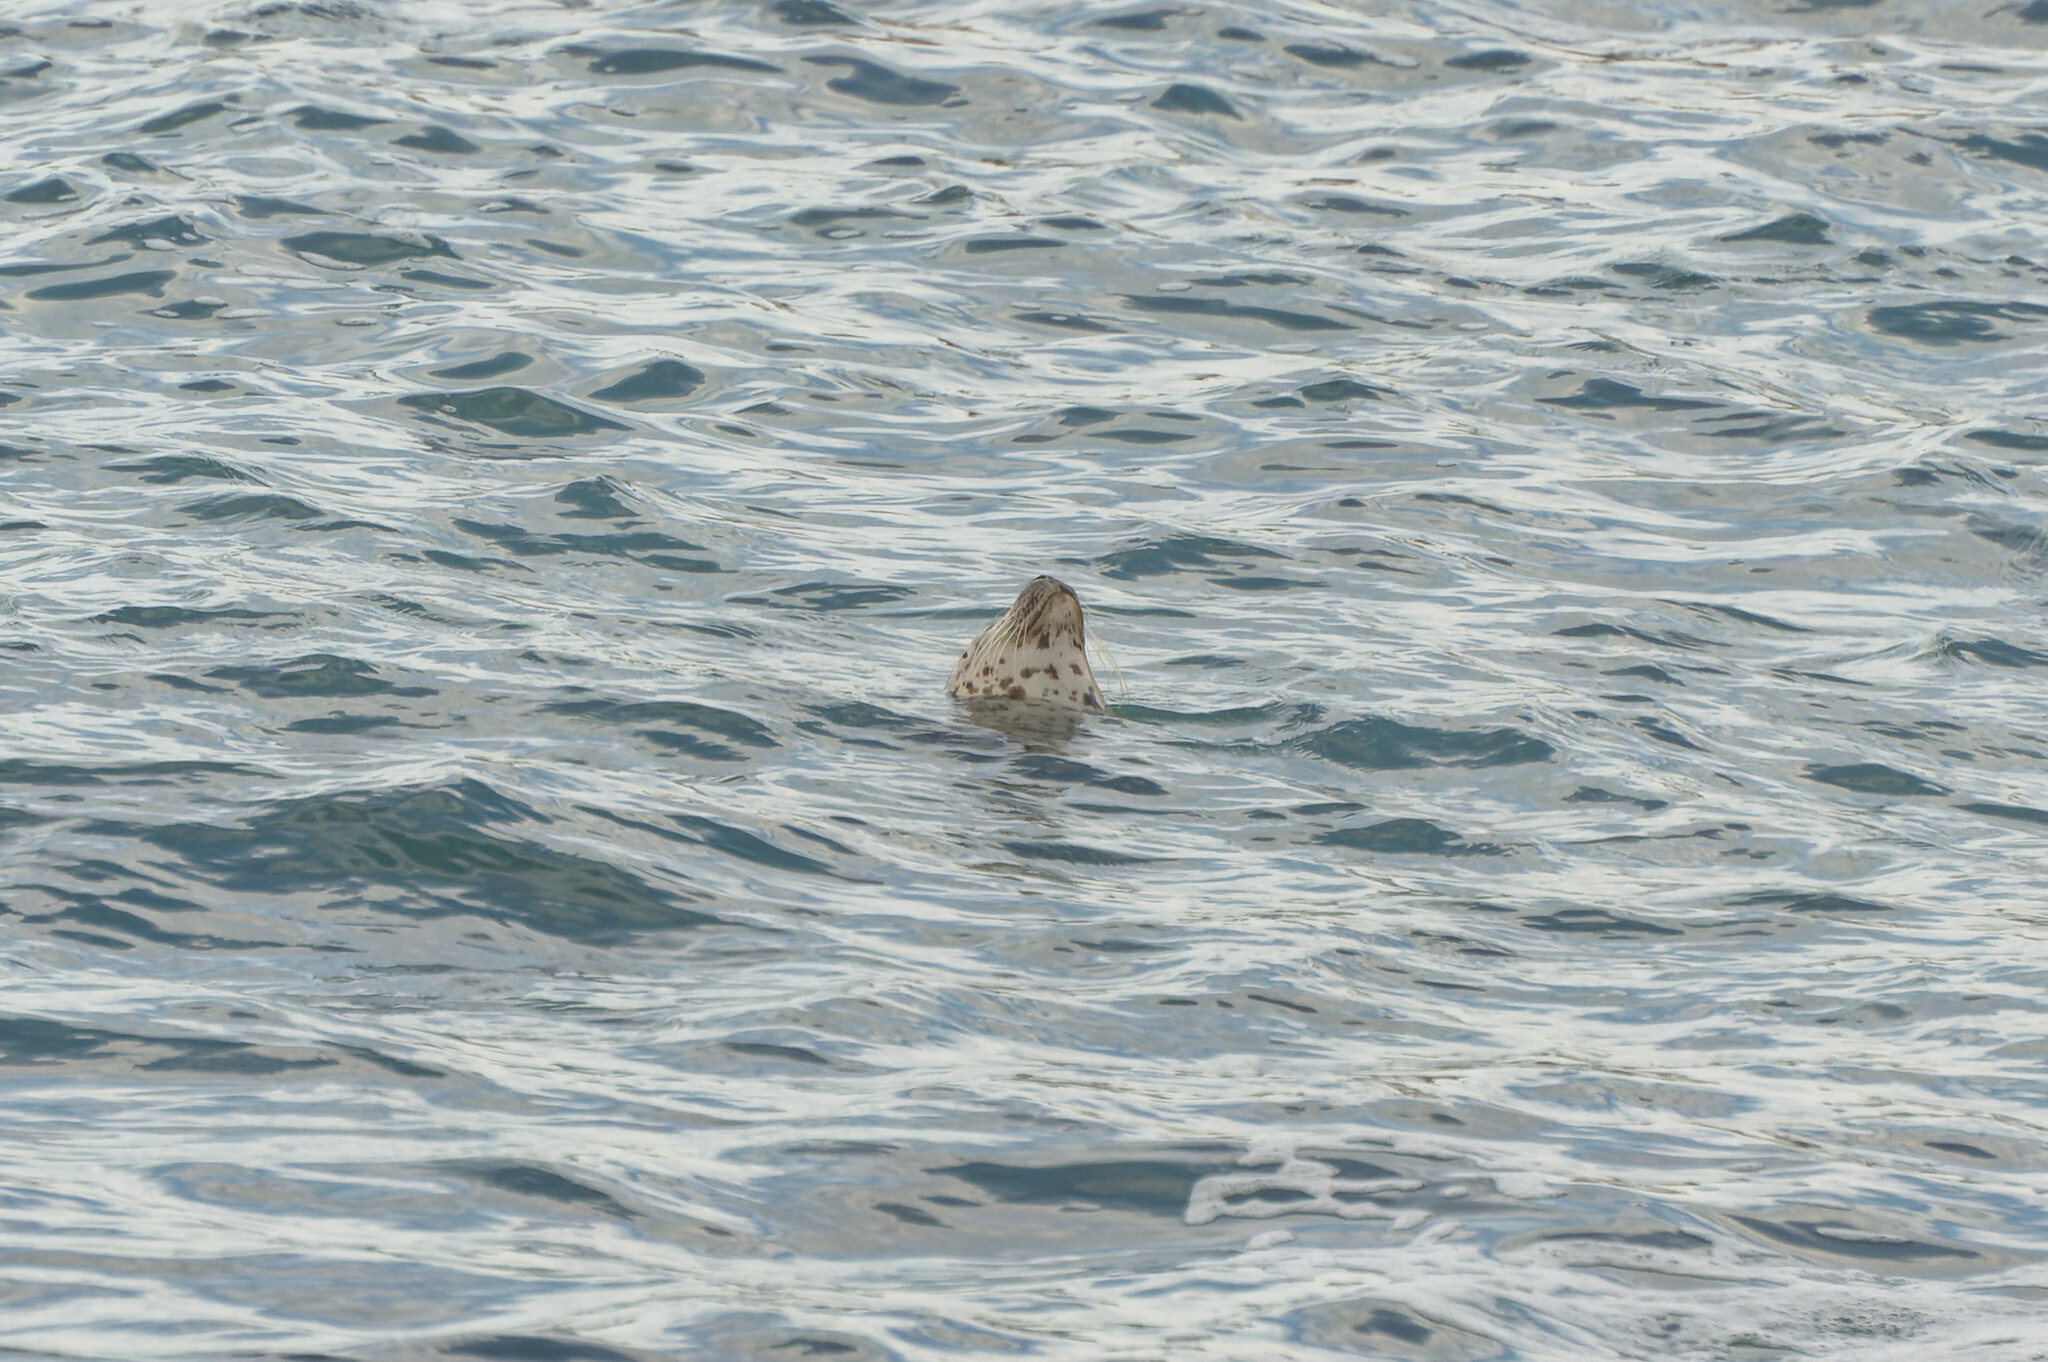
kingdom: Animalia
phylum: Chordata
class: Mammalia
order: Carnivora
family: Phocidae
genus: Phoca
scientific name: Phoca vitulina
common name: Harbor seal
